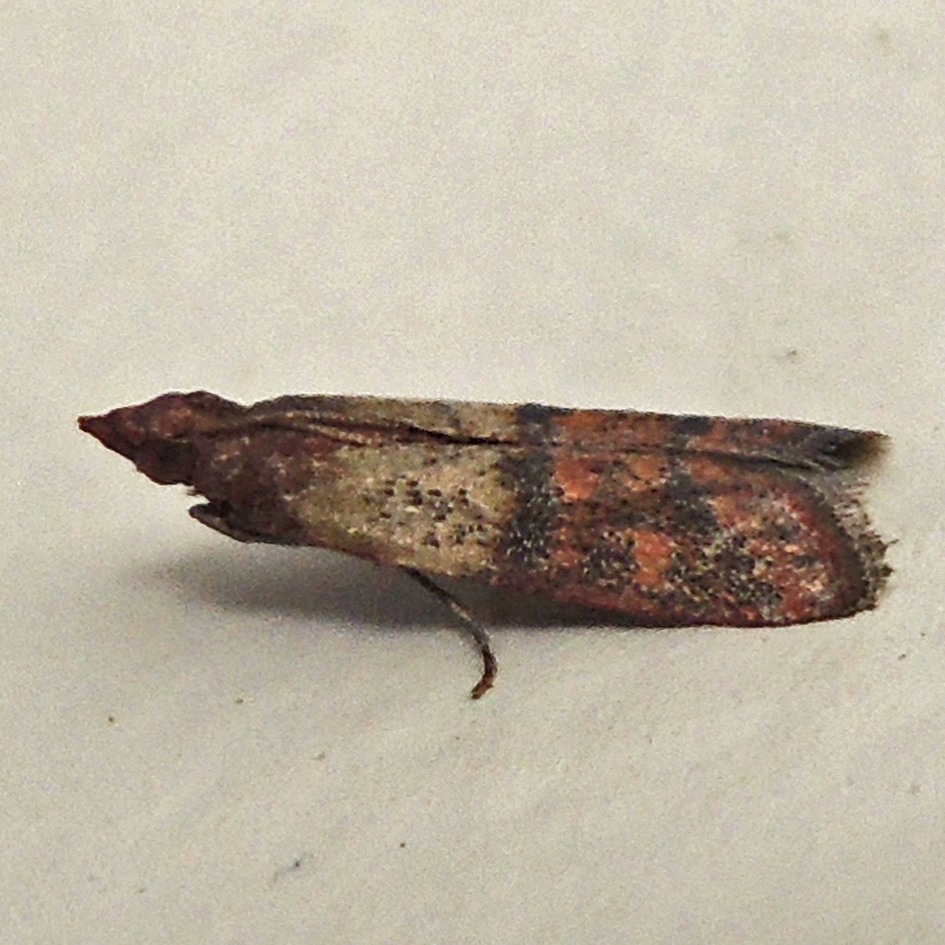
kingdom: Animalia
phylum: Arthropoda
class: Insecta
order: Lepidoptera
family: Pyralidae
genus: Plodia
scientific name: Plodia interpunctella
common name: Indian meal moth
